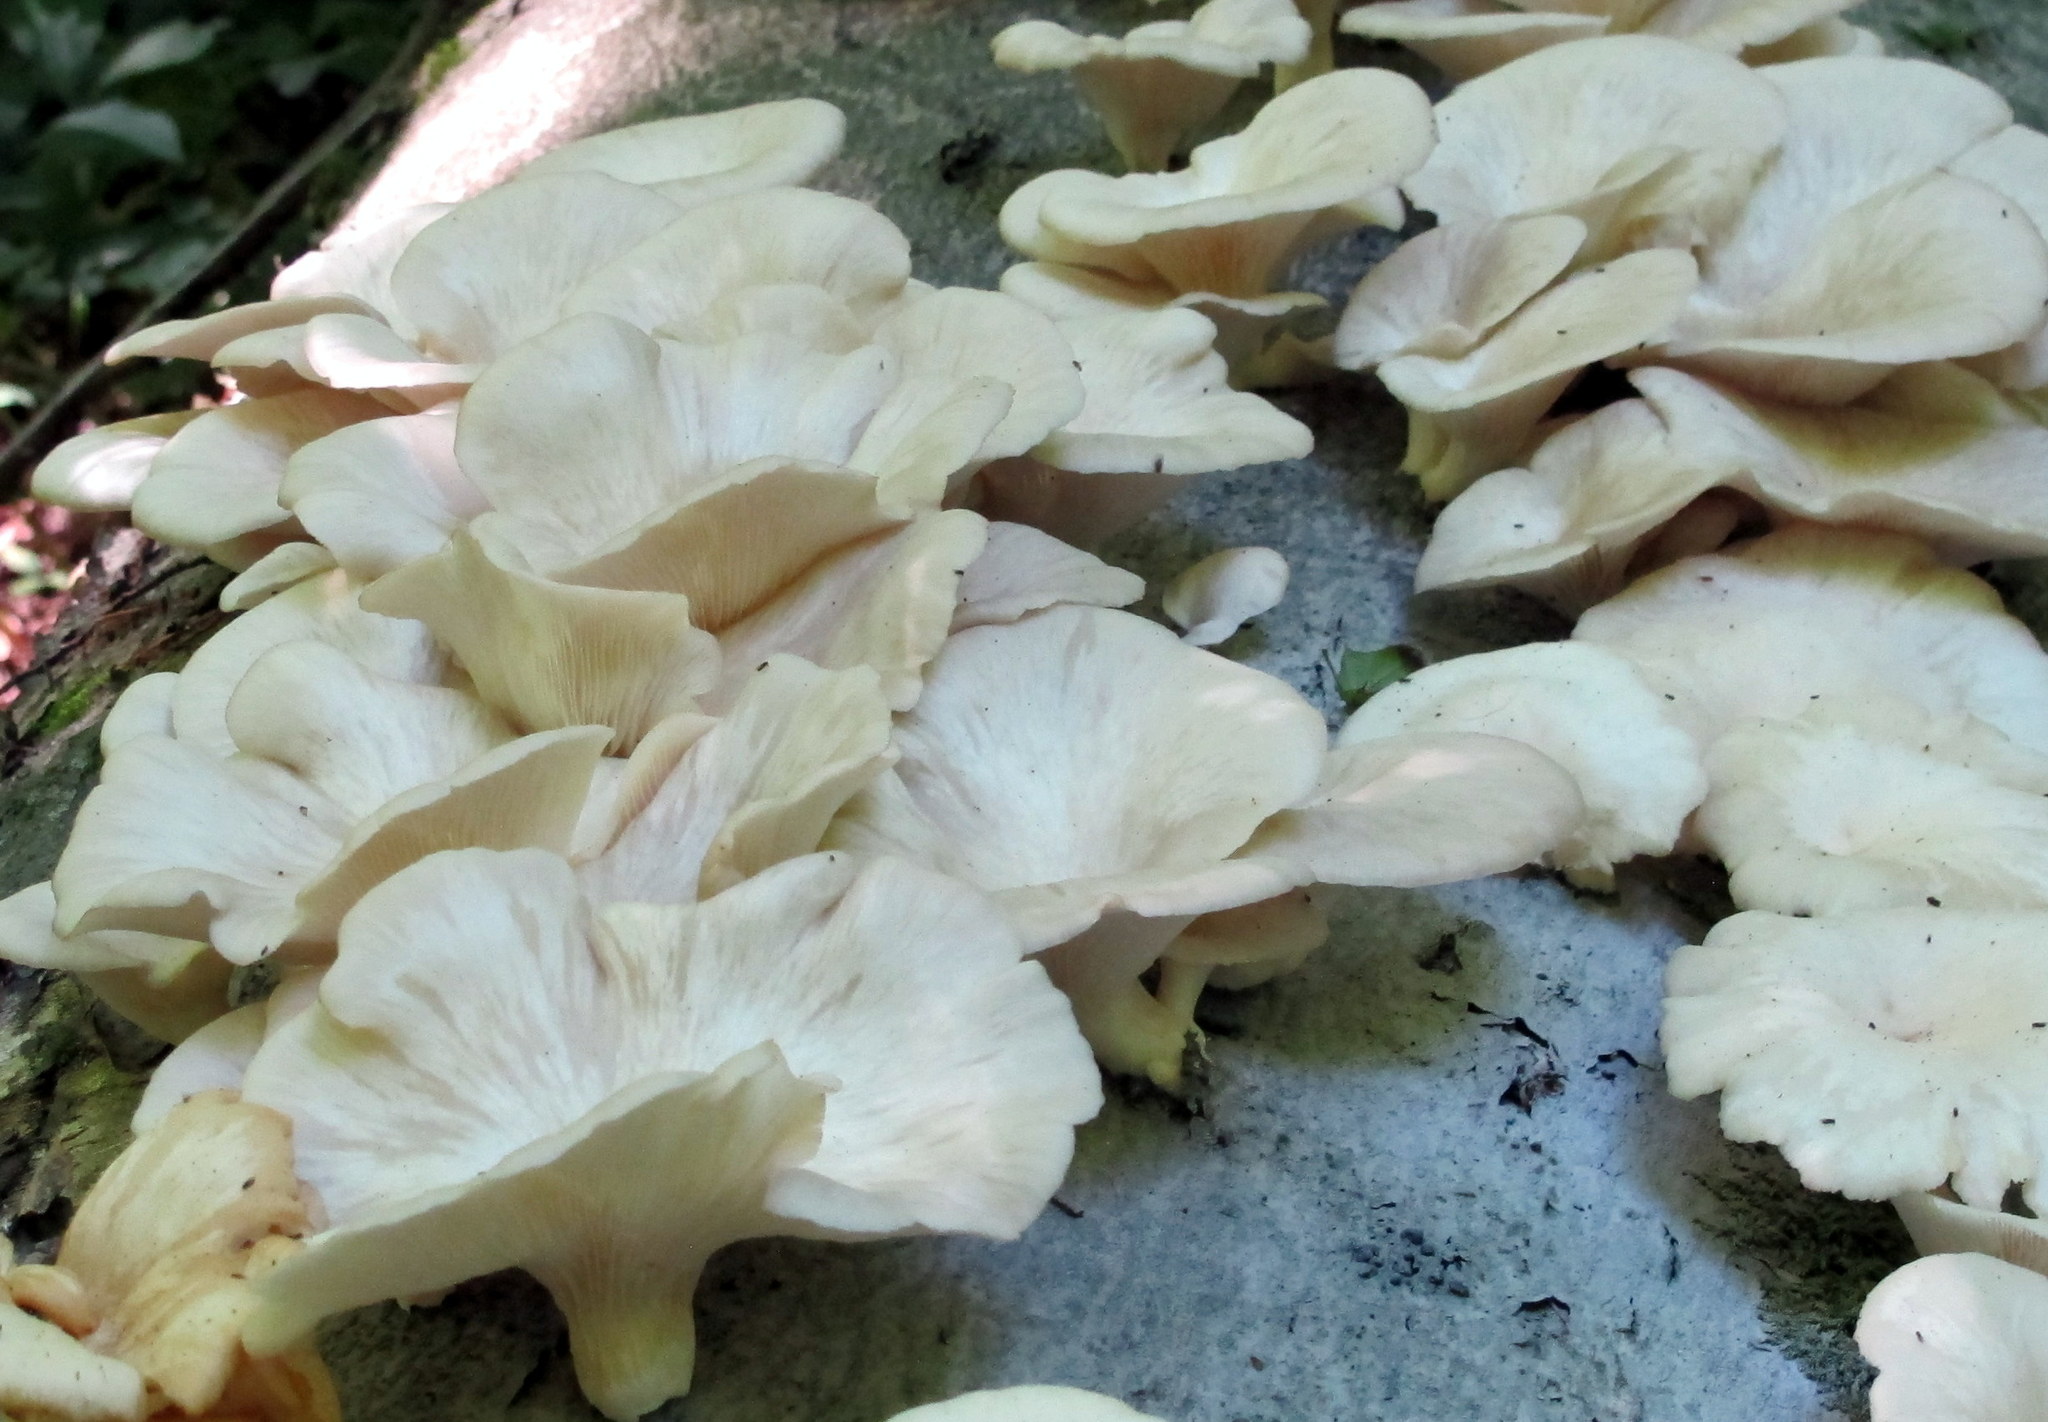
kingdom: Fungi
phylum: Basidiomycota
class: Agaricomycetes
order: Agaricales
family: Pleurotaceae
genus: Pleurotus
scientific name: Pleurotus pulmonarius
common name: Pale oyster
